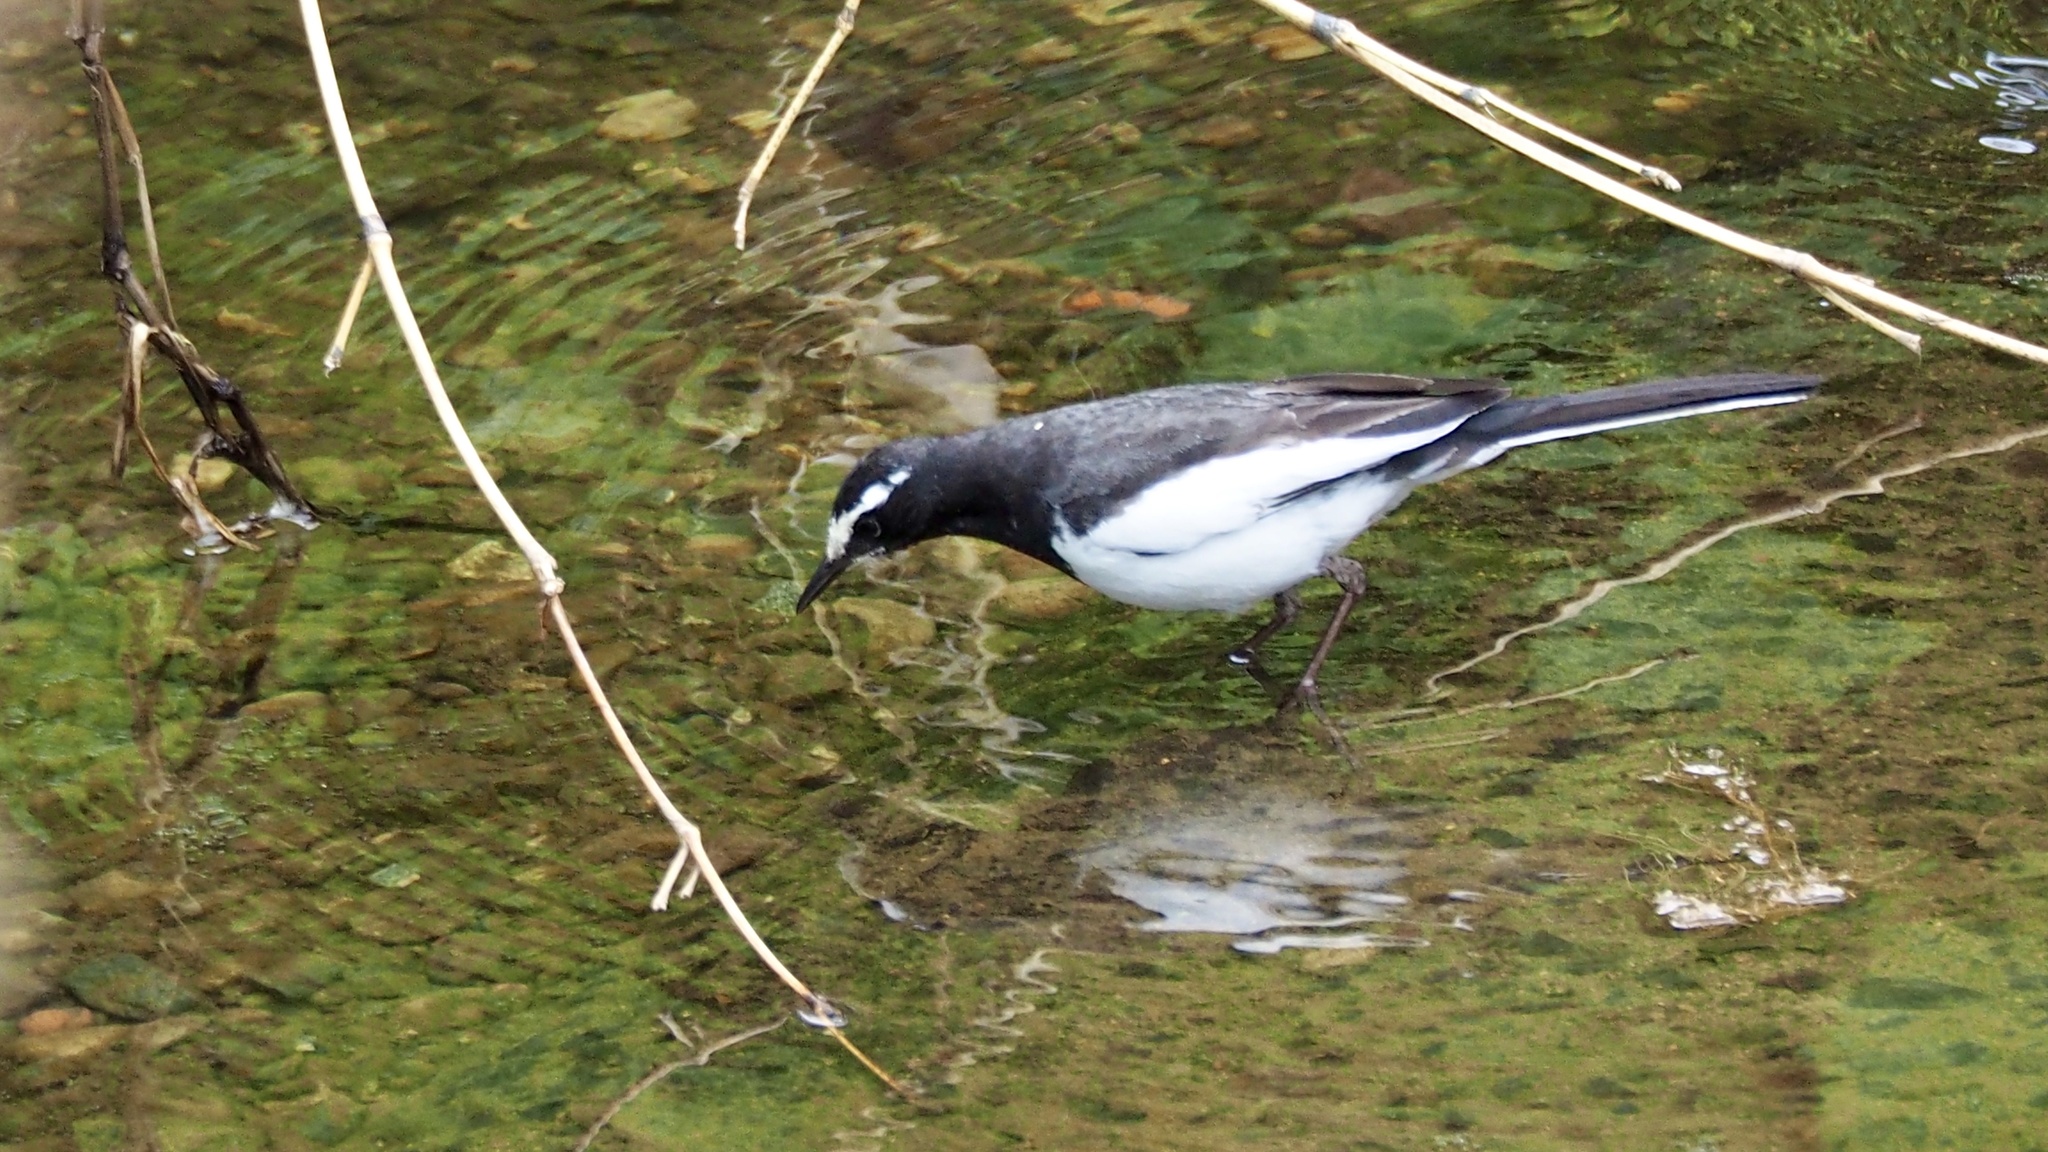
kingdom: Animalia
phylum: Chordata
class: Aves
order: Passeriformes
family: Motacillidae
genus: Motacilla
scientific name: Motacilla grandis
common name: Japanese wagtail
